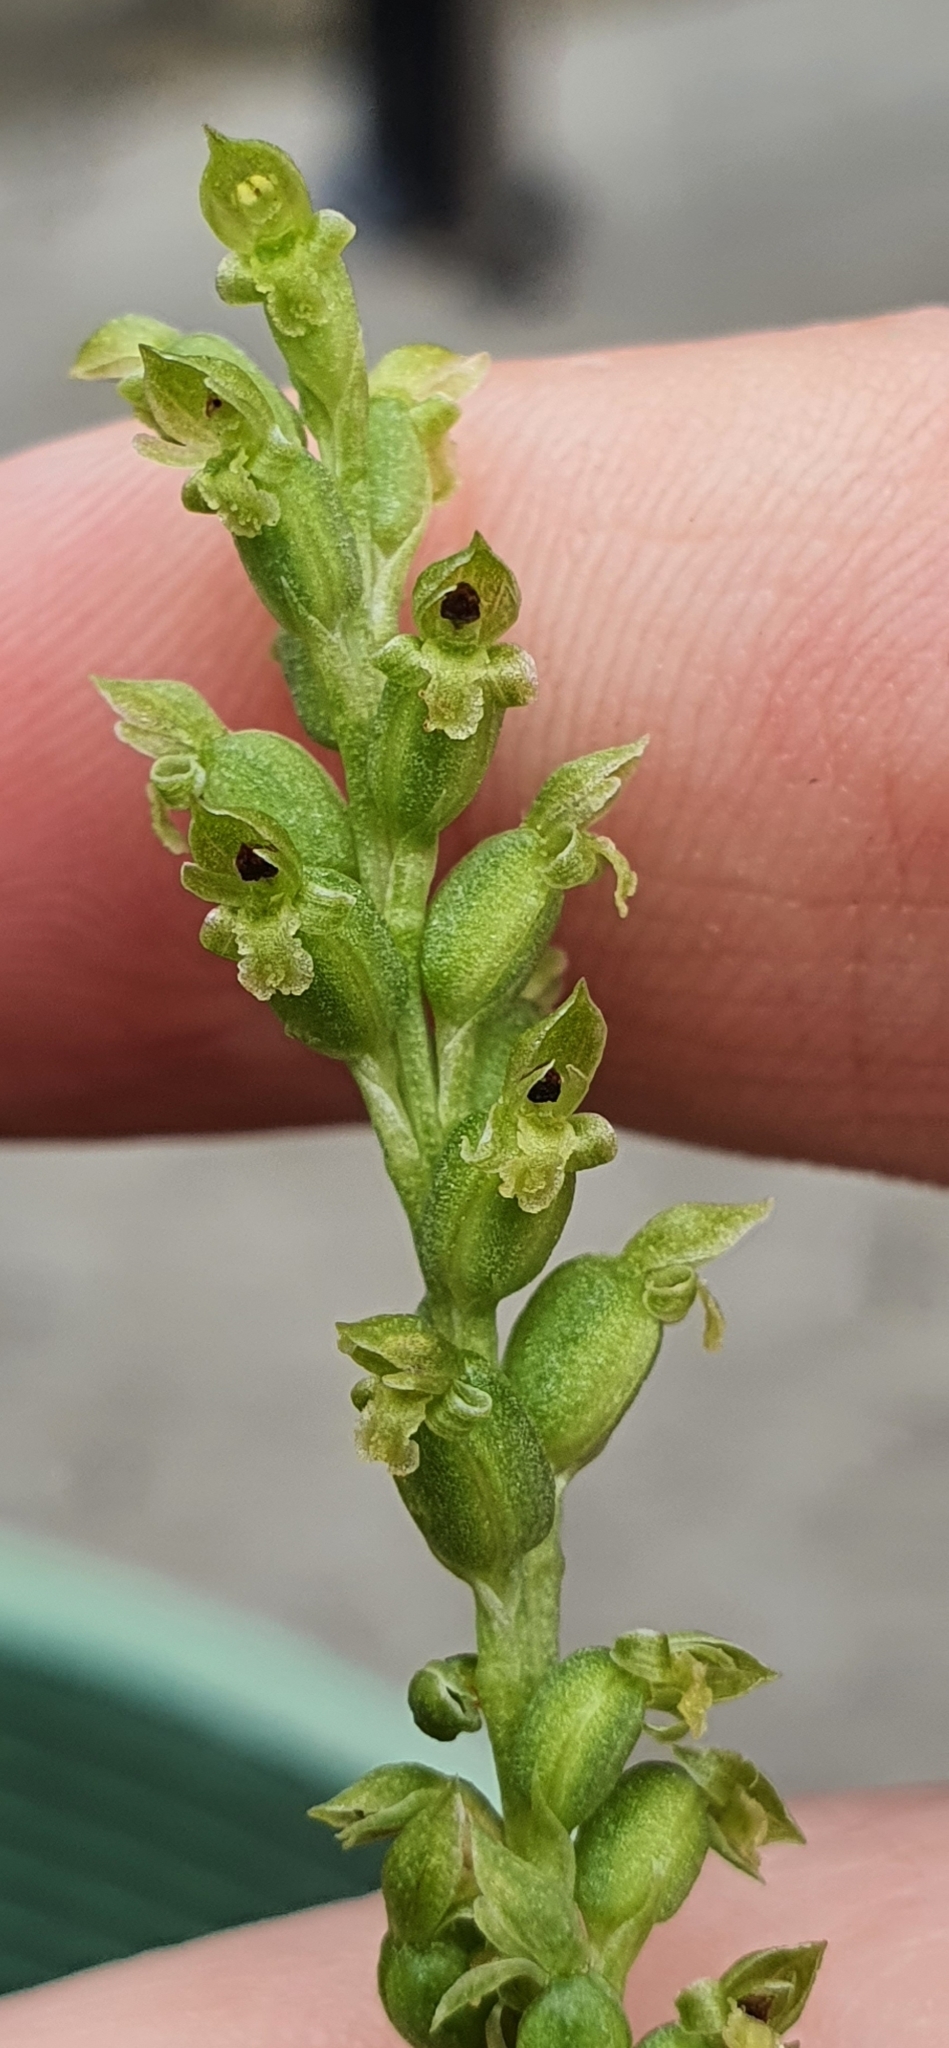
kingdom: Plantae
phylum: Tracheophyta
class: Liliopsida
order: Asparagales
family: Orchidaceae
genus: Microtis
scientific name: Microtis unifolia
